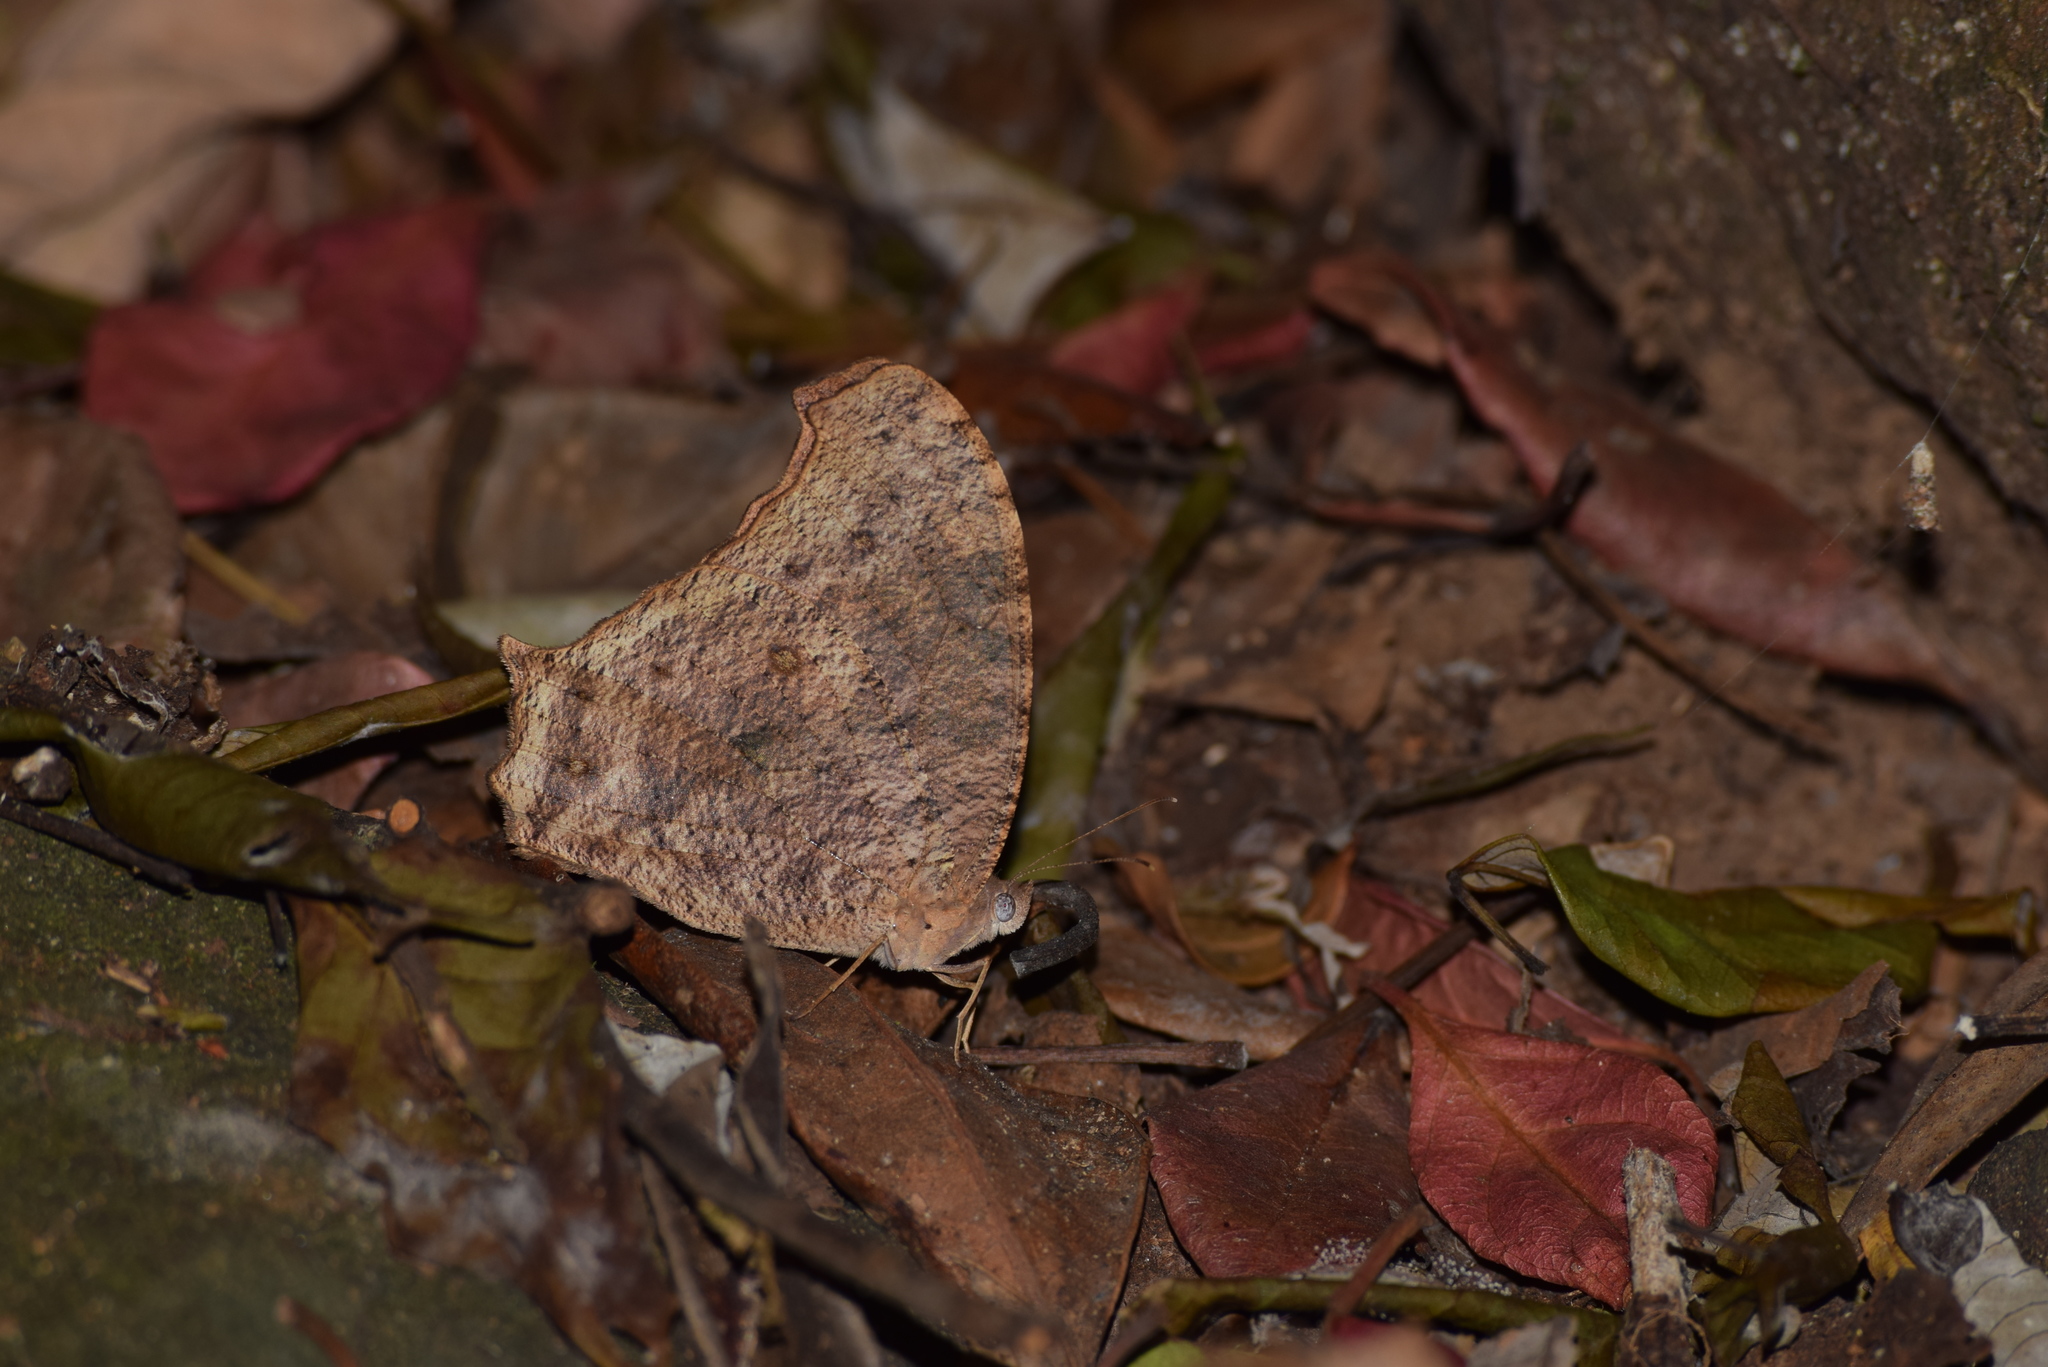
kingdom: Animalia
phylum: Arthropoda
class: Insecta
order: Lepidoptera
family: Nymphalidae
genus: Melanitis
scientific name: Melanitis phedima
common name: Dark evening brown
